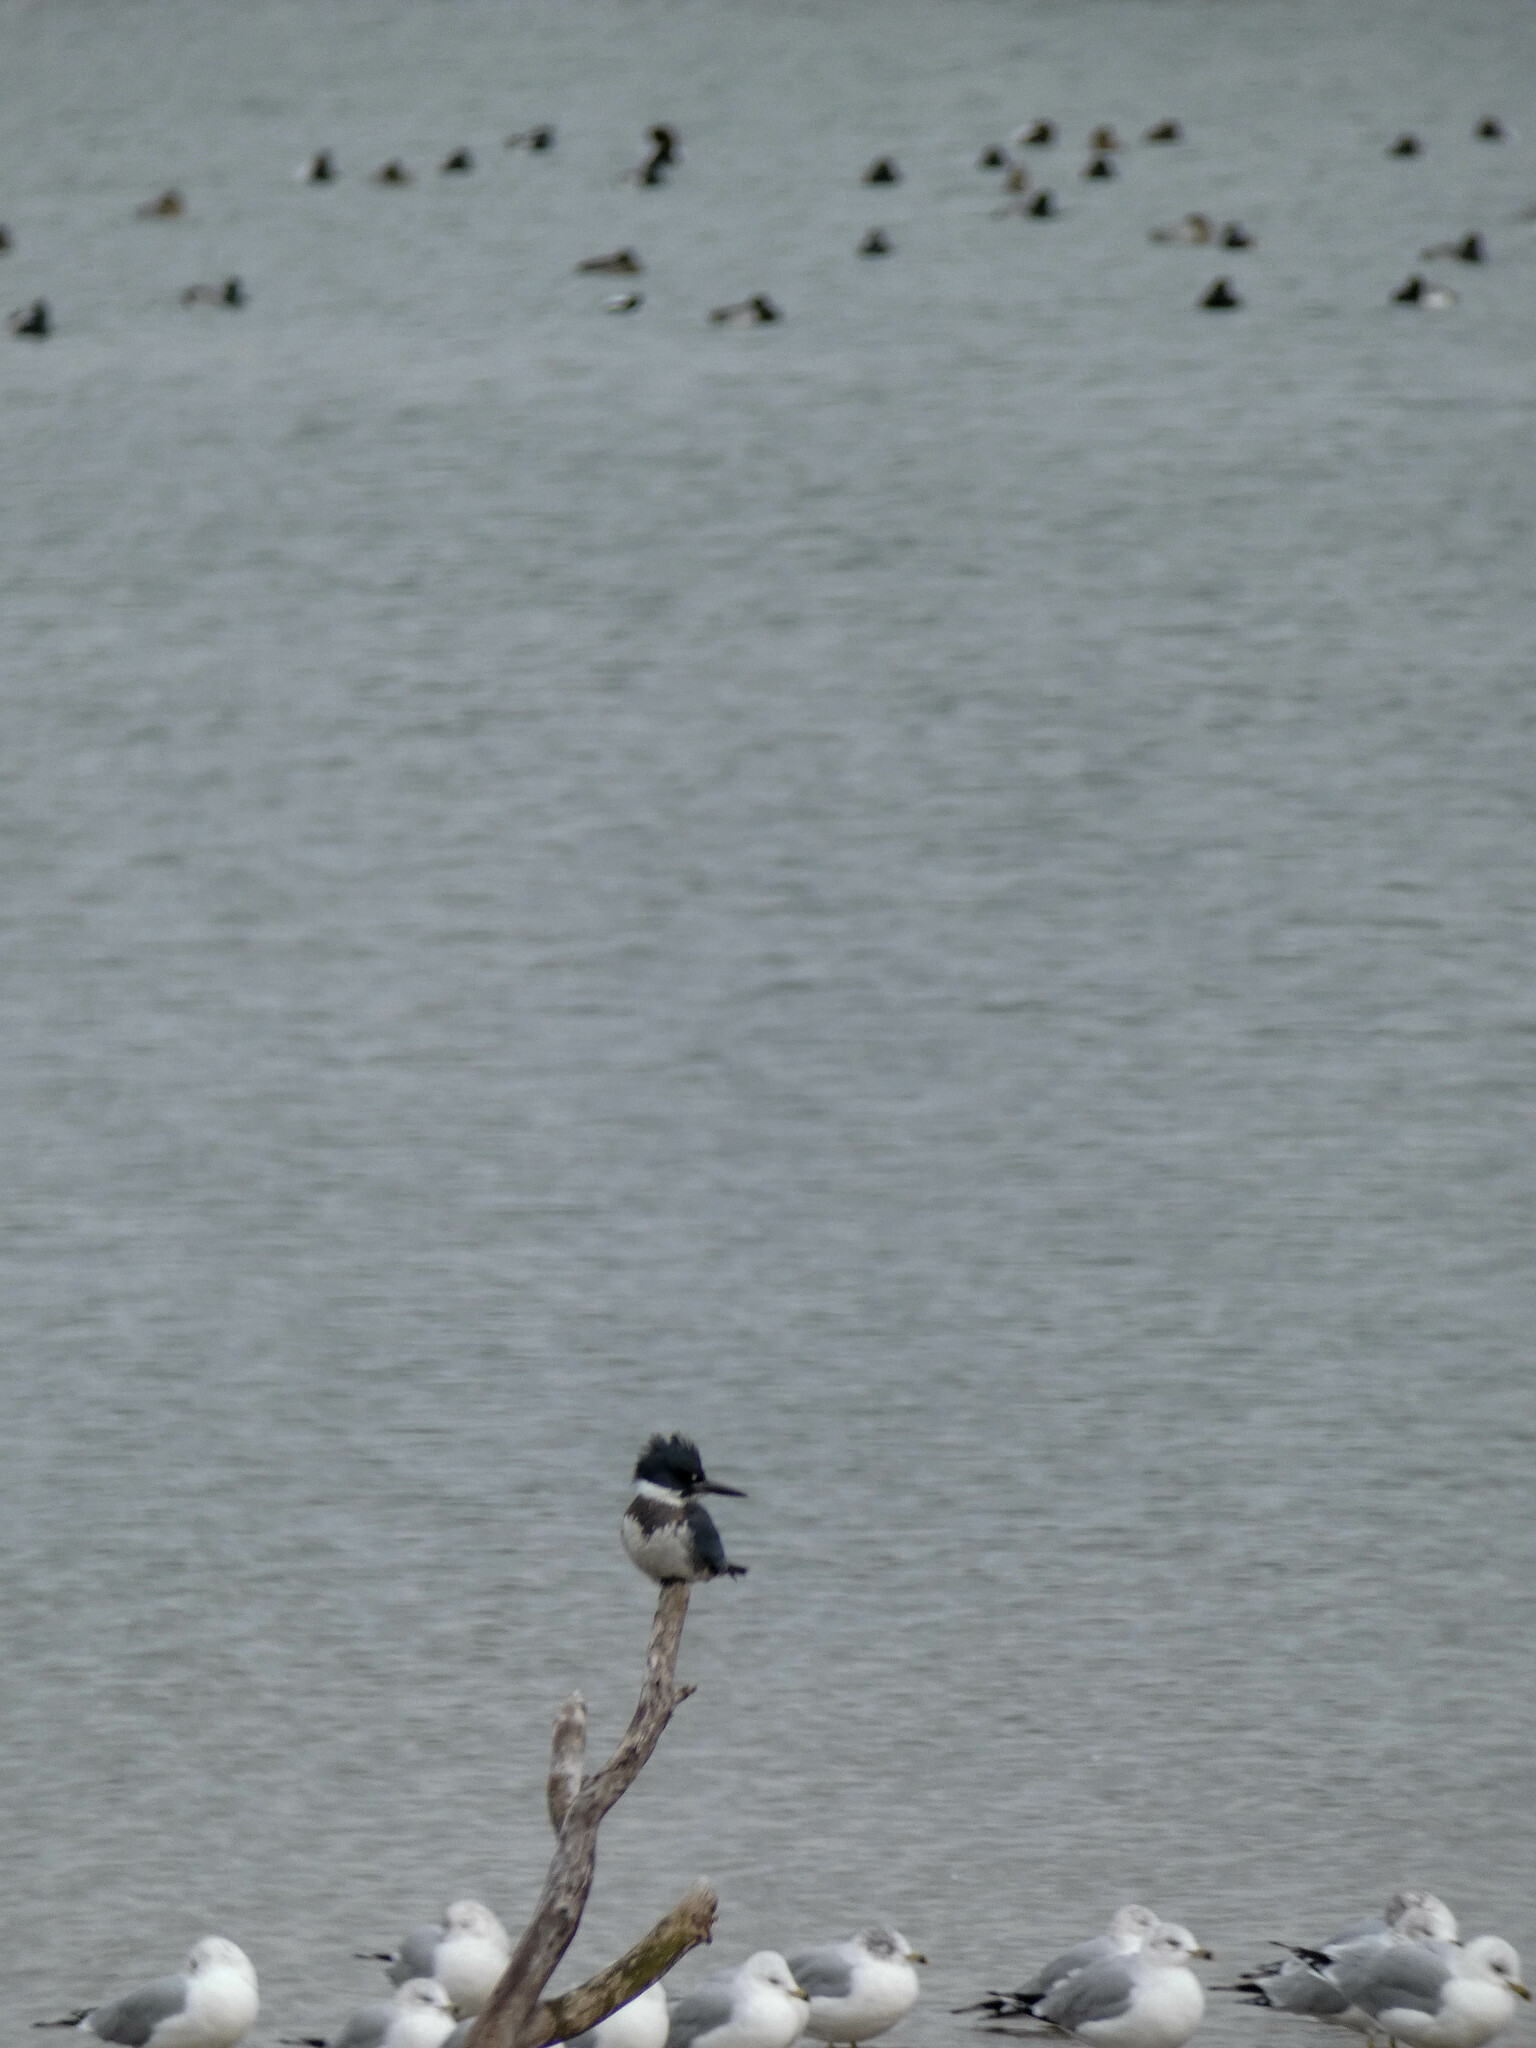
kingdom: Animalia
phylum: Chordata
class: Aves
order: Coraciiformes
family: Alcedinidae
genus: Megaceryle
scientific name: Megaceryle alcyon
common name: Belted kingfisher
